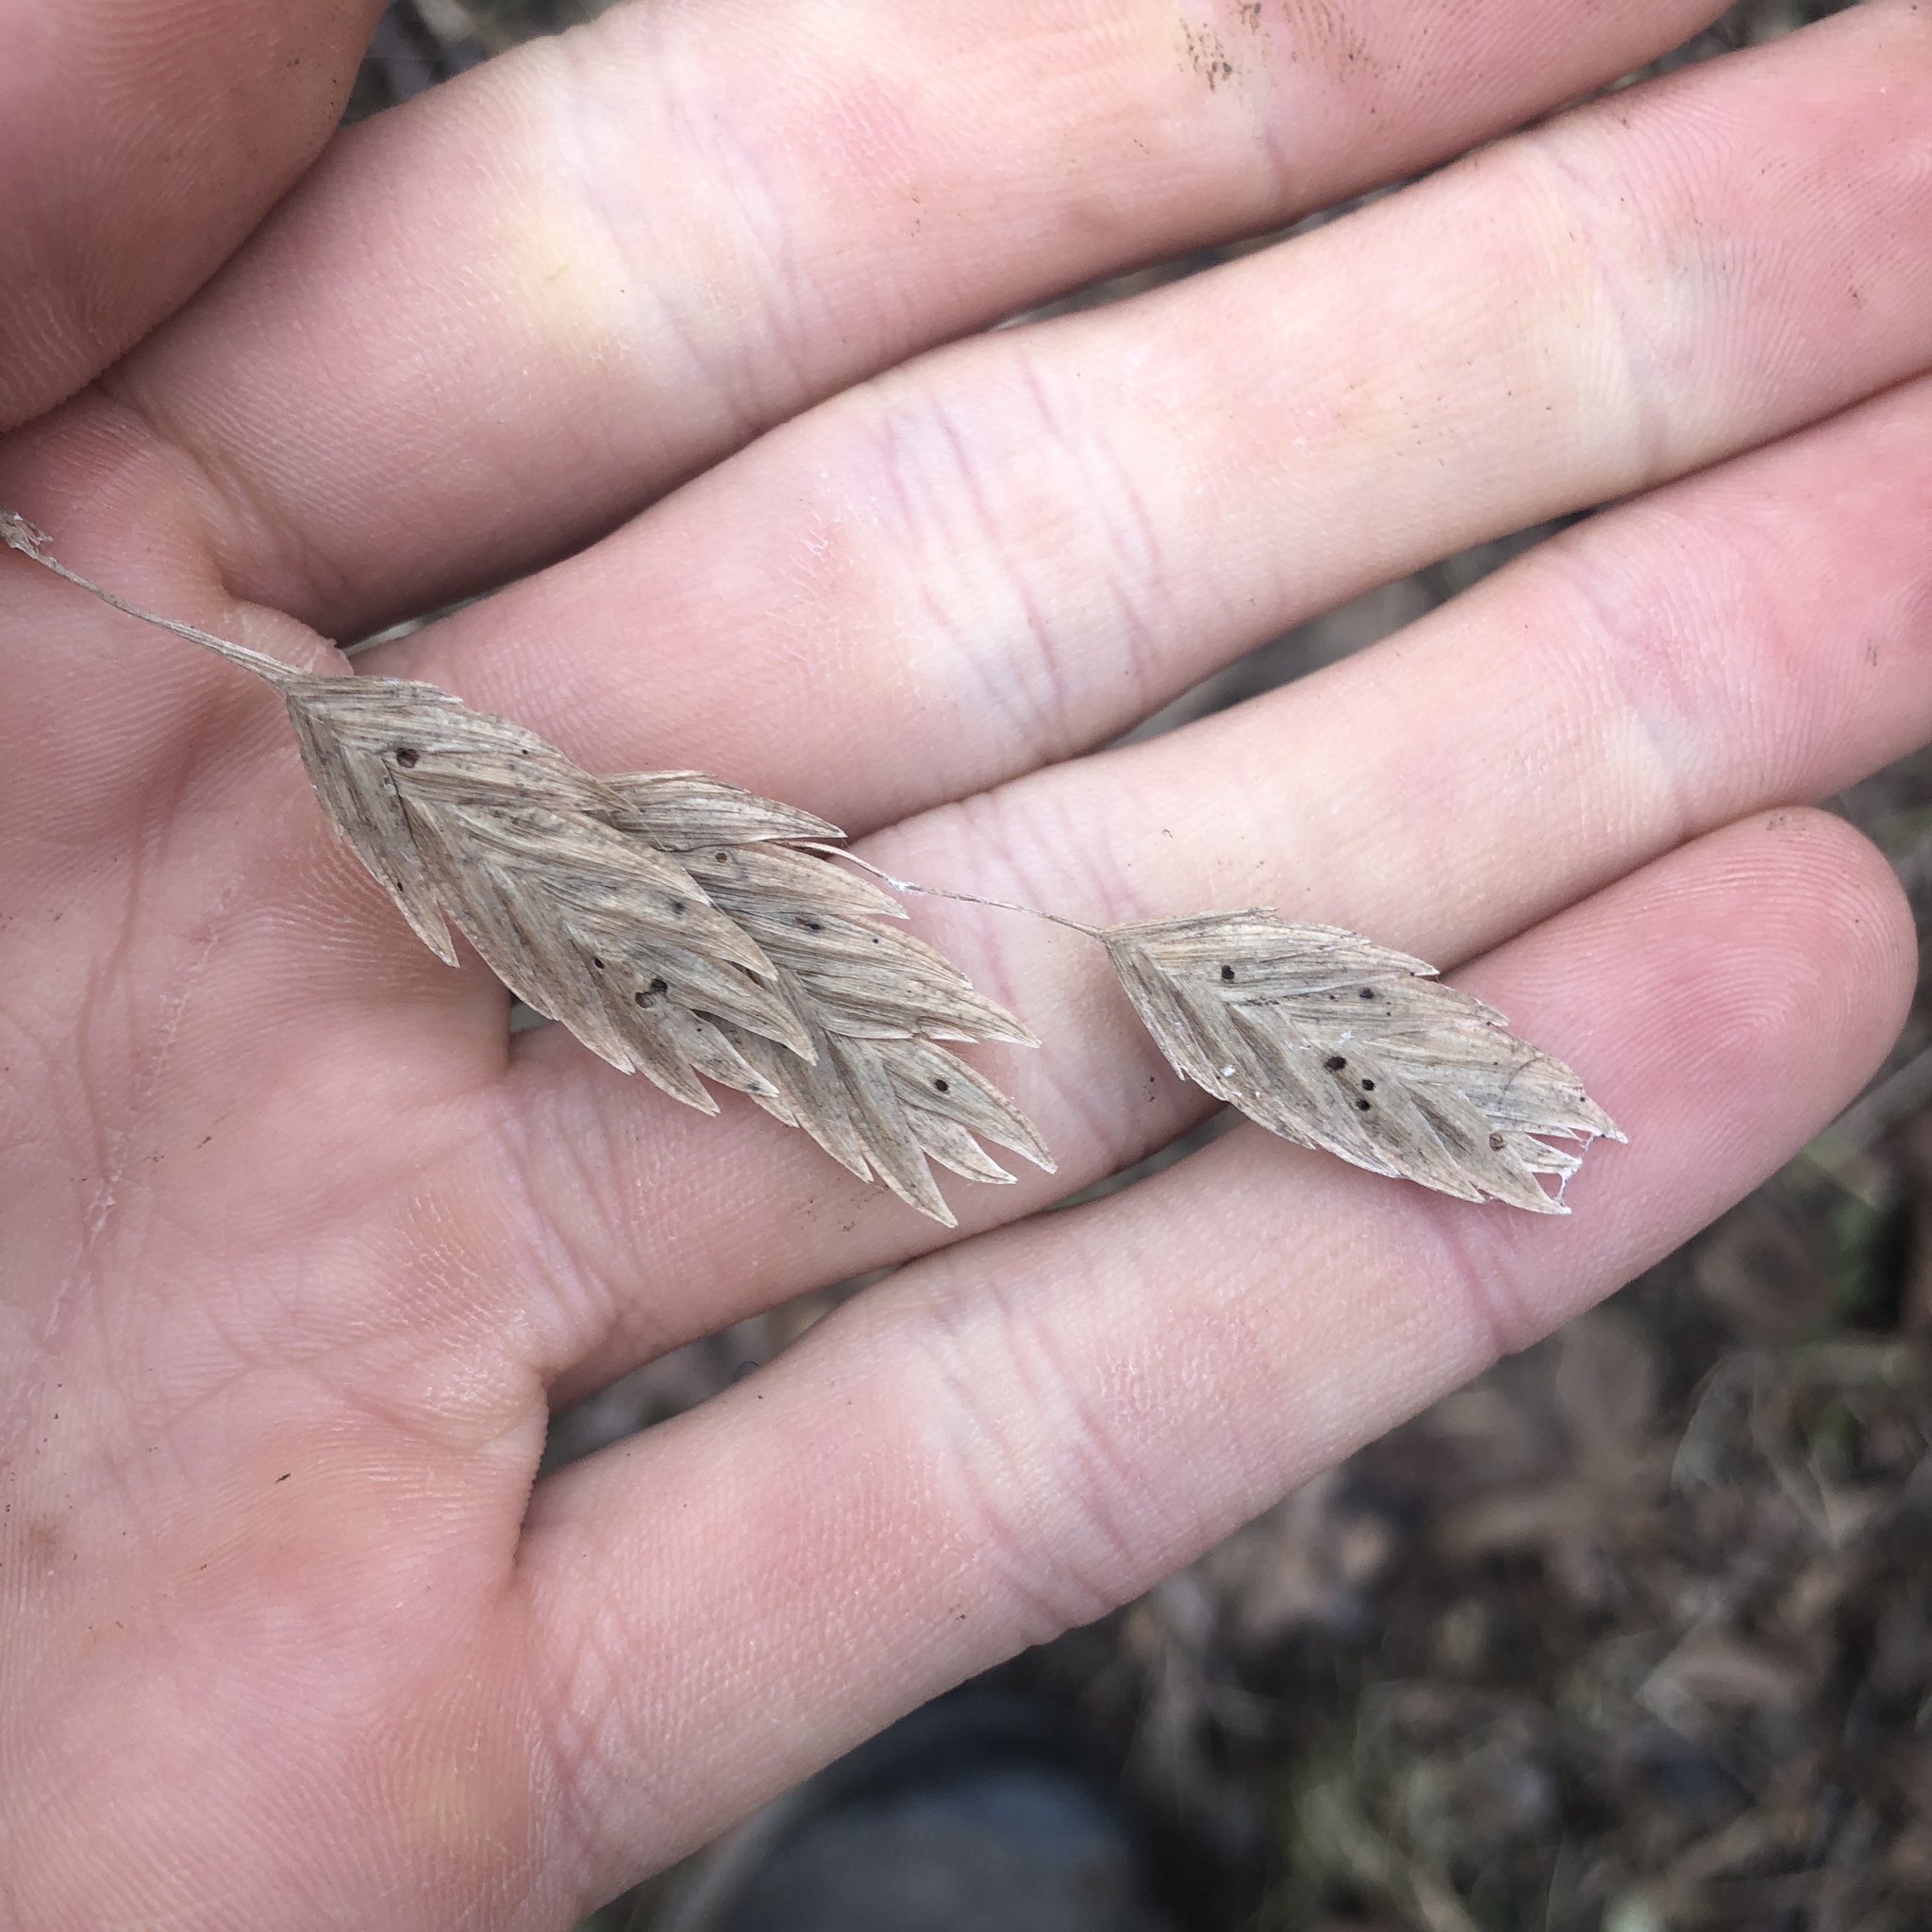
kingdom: Plantae
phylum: Tracheophyta
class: Liliopsida
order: Poales
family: Poaceae
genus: Chasmanthium
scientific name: Chasmanthium latifolium
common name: Broad-leaved chasmanthium
